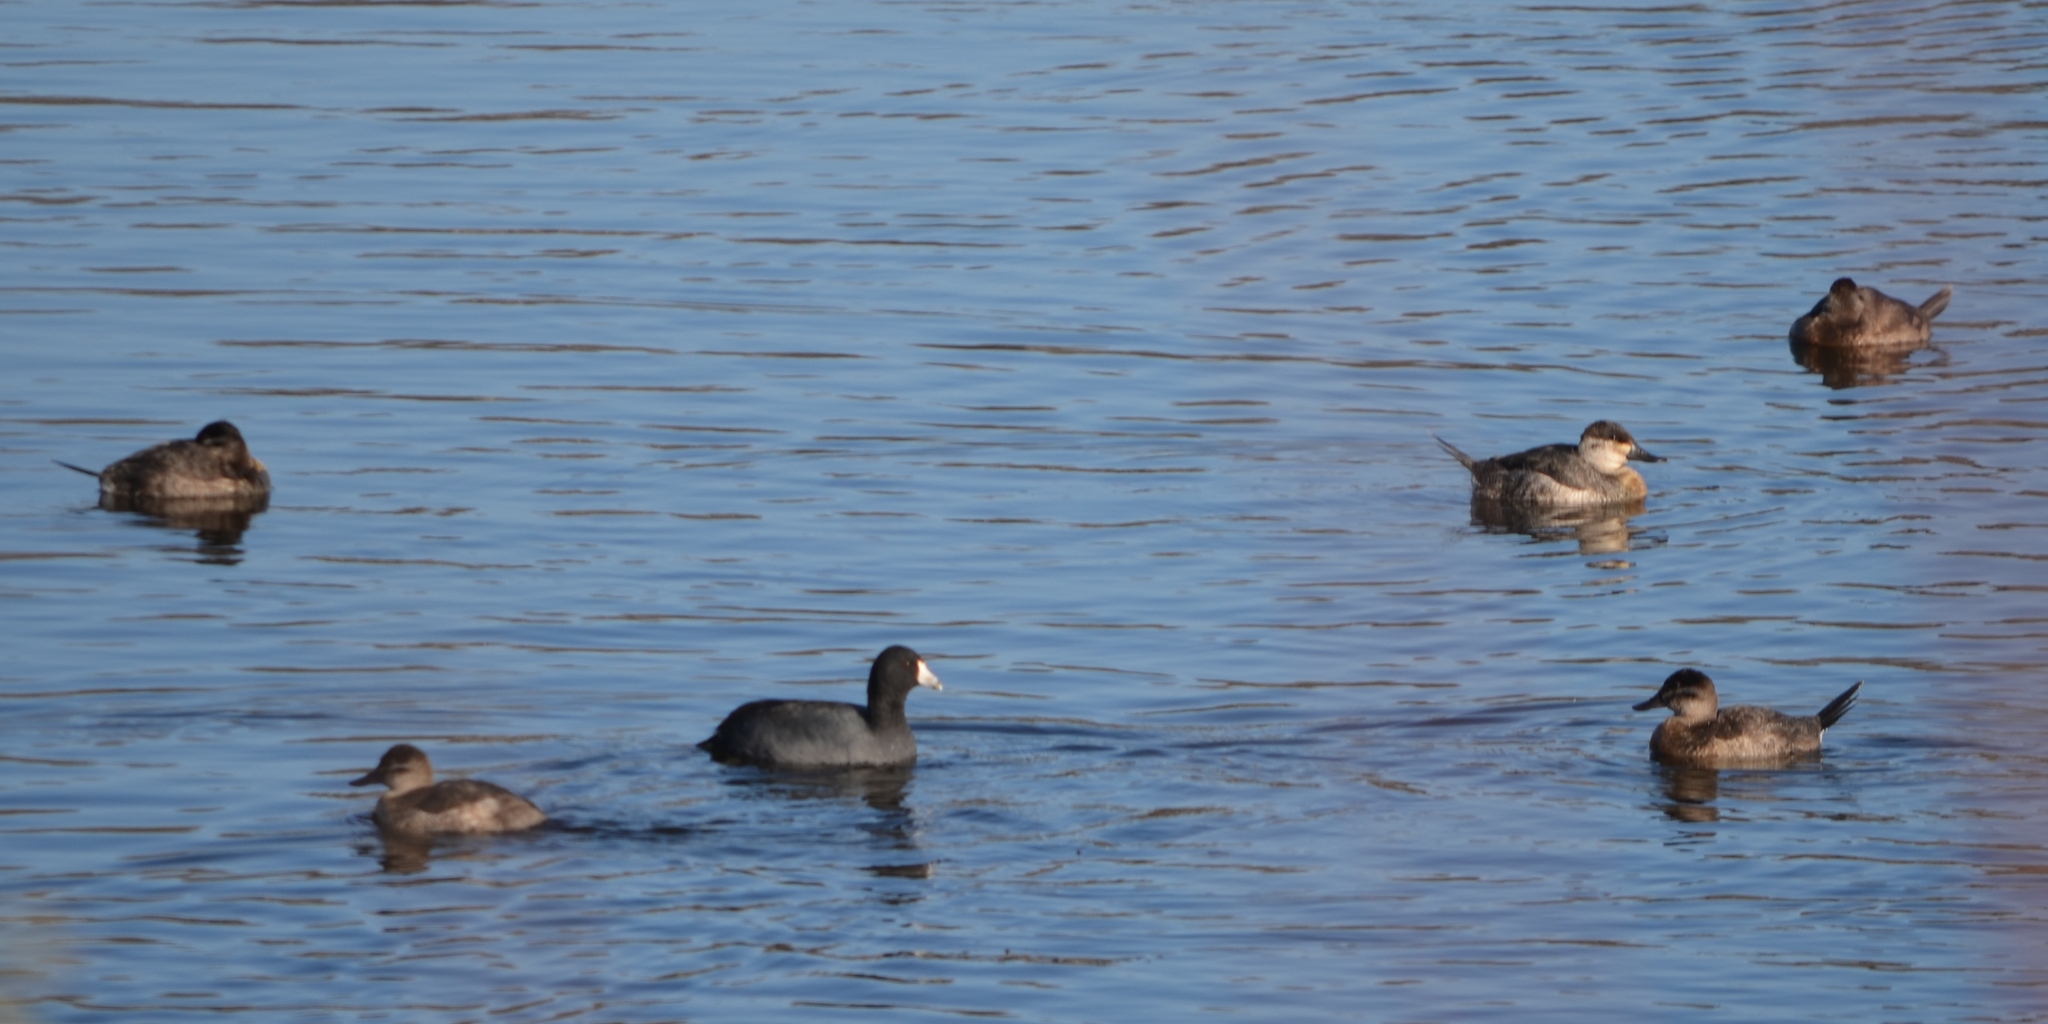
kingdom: Animalia
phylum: Chordata
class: Aves
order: Anseriformes
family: Anatidae
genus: Oxyura
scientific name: Oxyura jamaicensis
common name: Ruddy duck
